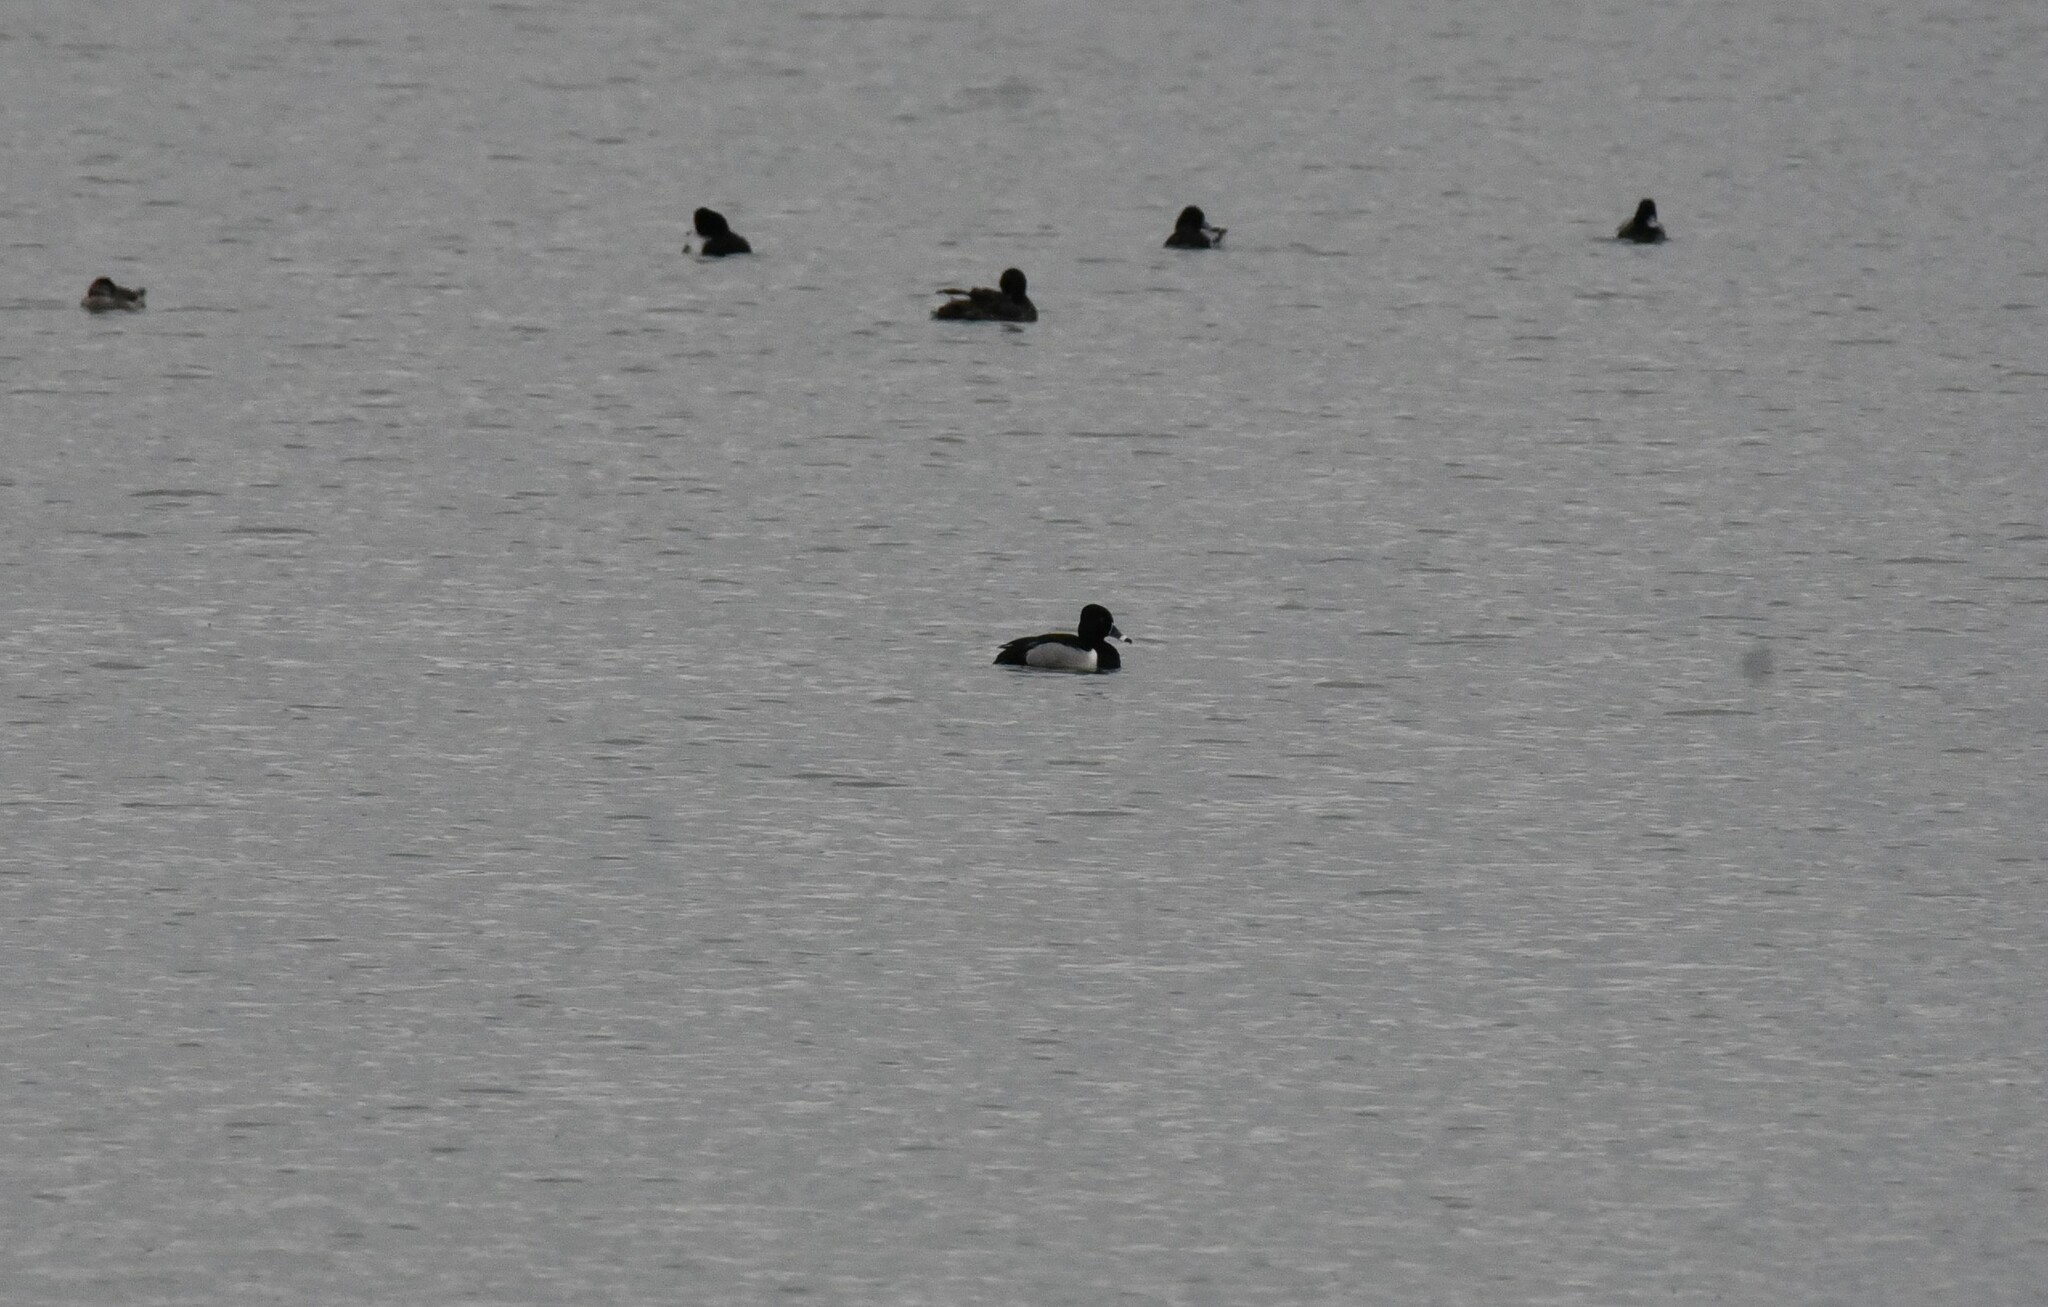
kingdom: Animalia
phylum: Chordata
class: Aves
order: Anseriformes
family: Anatidae
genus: Aythya
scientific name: Aythya collaris
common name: Ring-necked duck
